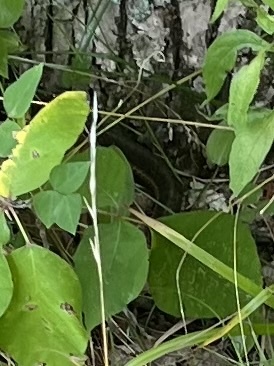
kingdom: Animalia
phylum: Chordata
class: Squamata
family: Colubridae
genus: Thamnophis
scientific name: Thamnophis sirtalis
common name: Common garter snake
